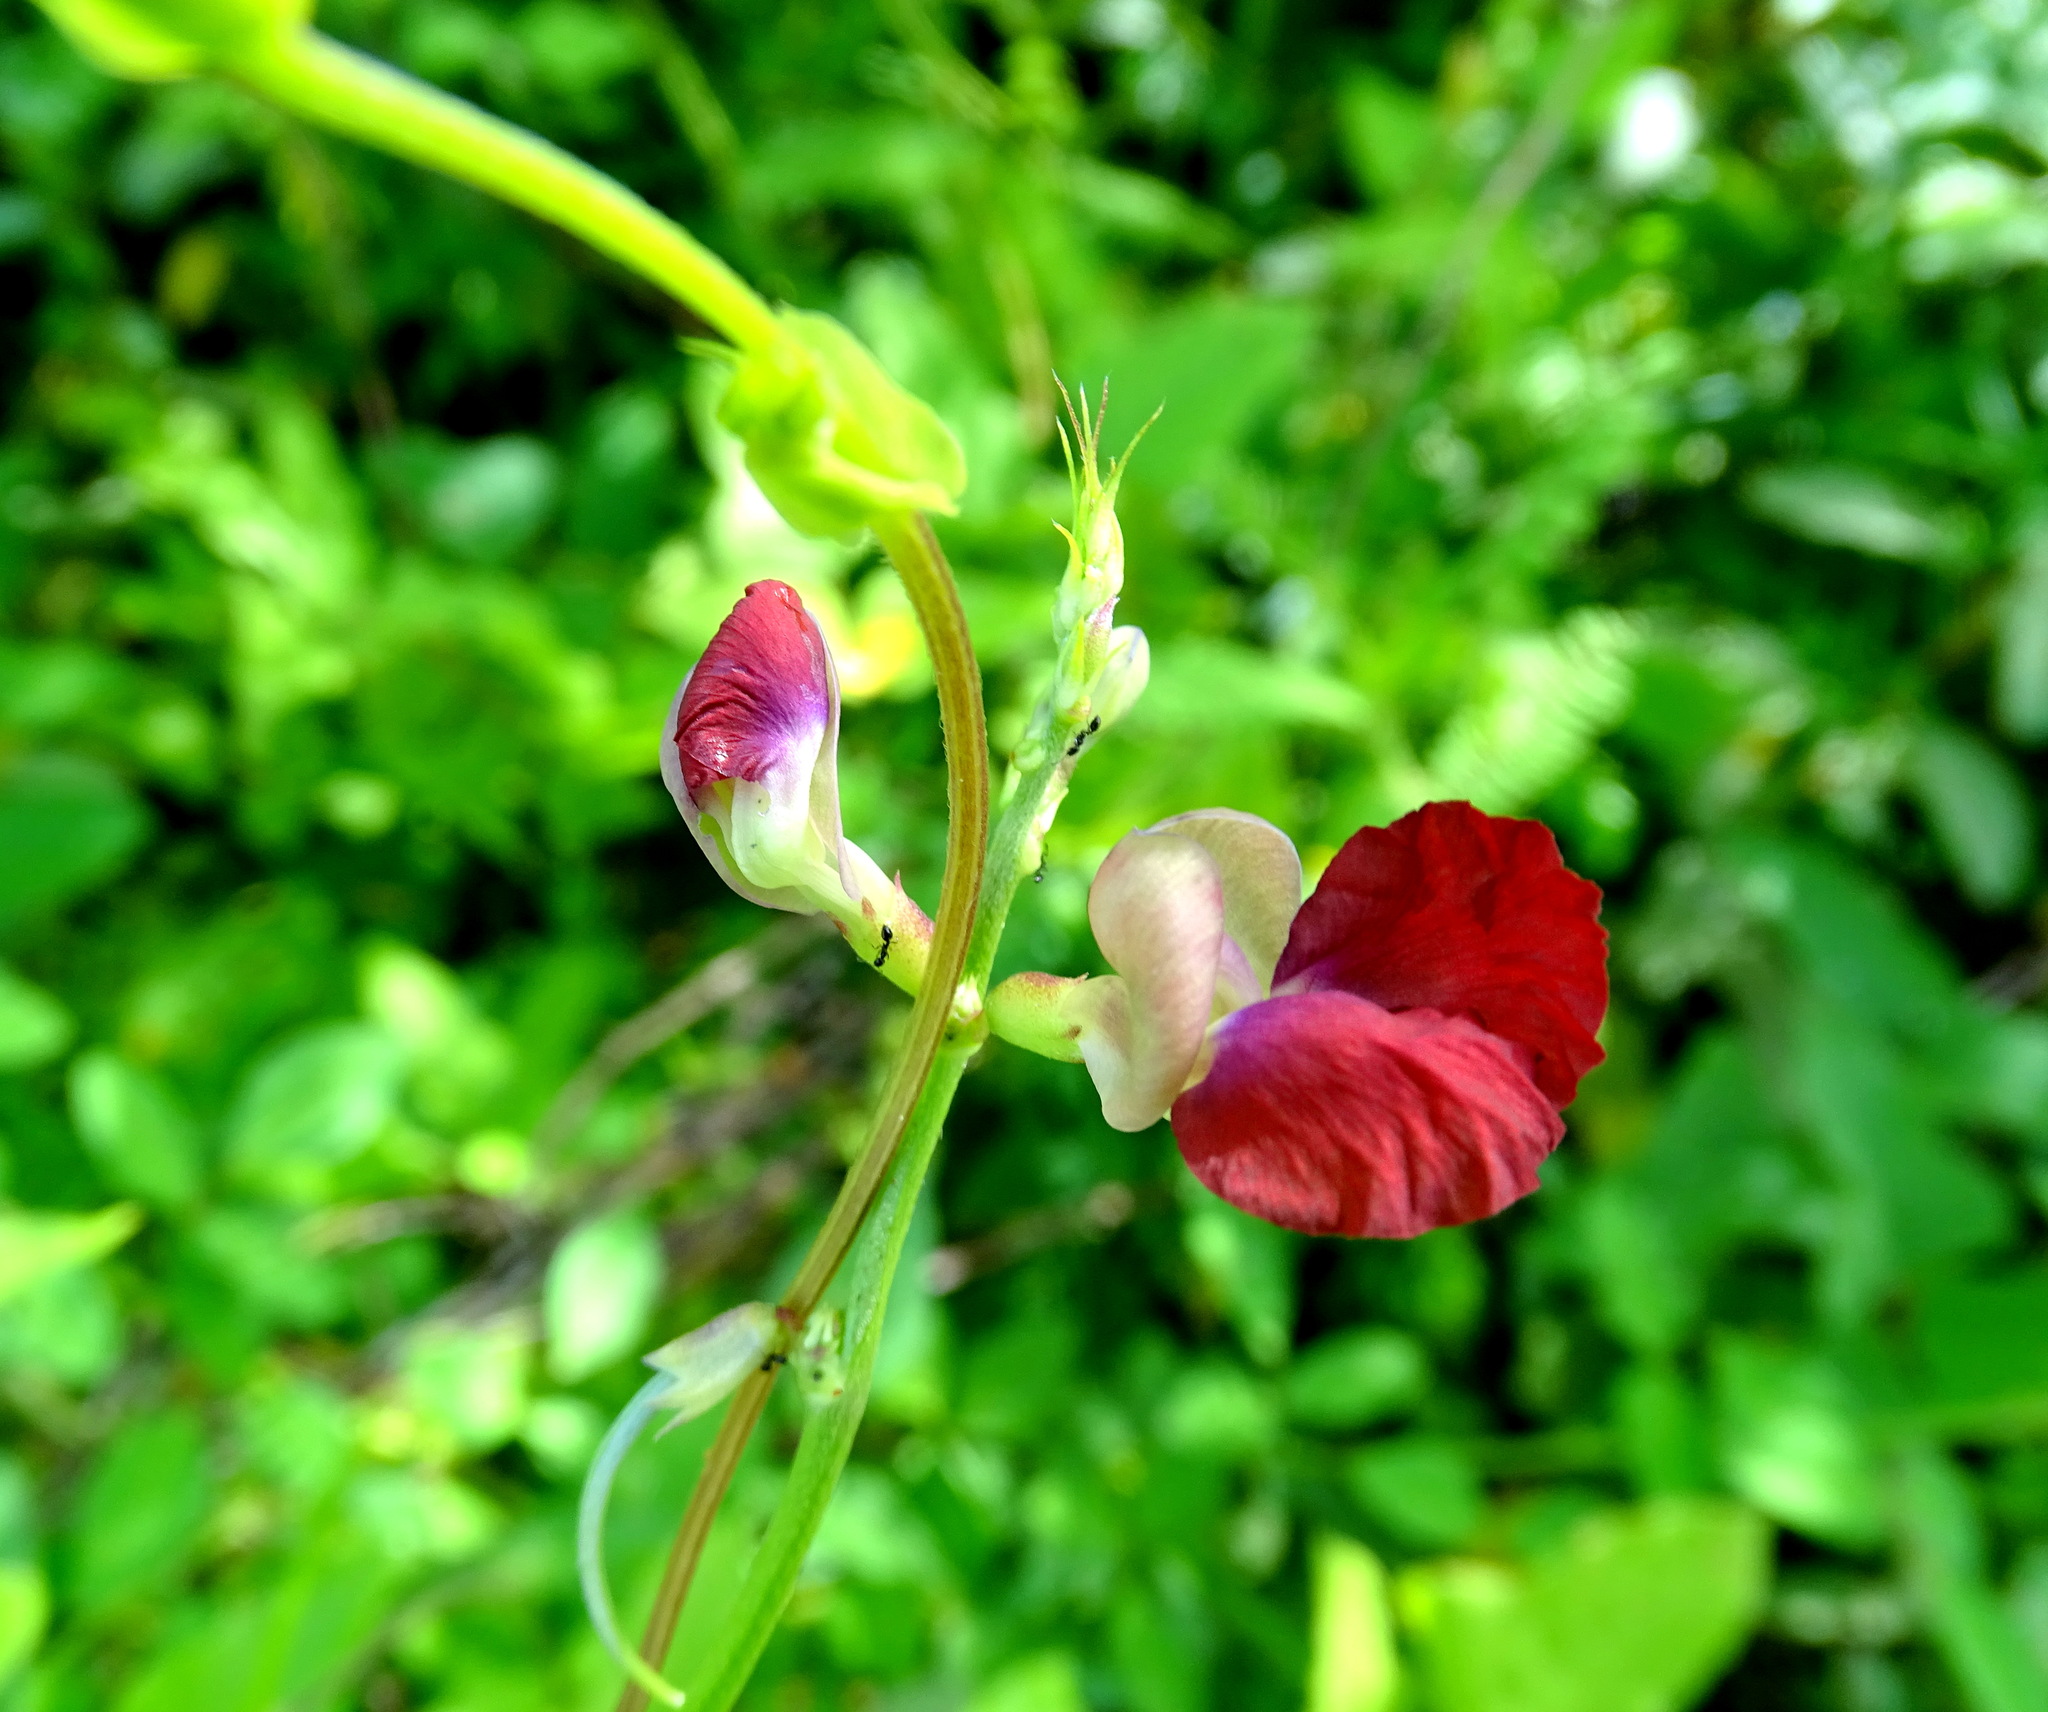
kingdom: Plantae
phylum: Tracheophyta
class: Magnoliopsida
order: Fabales
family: Fabaceae
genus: Macroptilium
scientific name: Macroptilium lathyroides
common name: Wild bushbean
